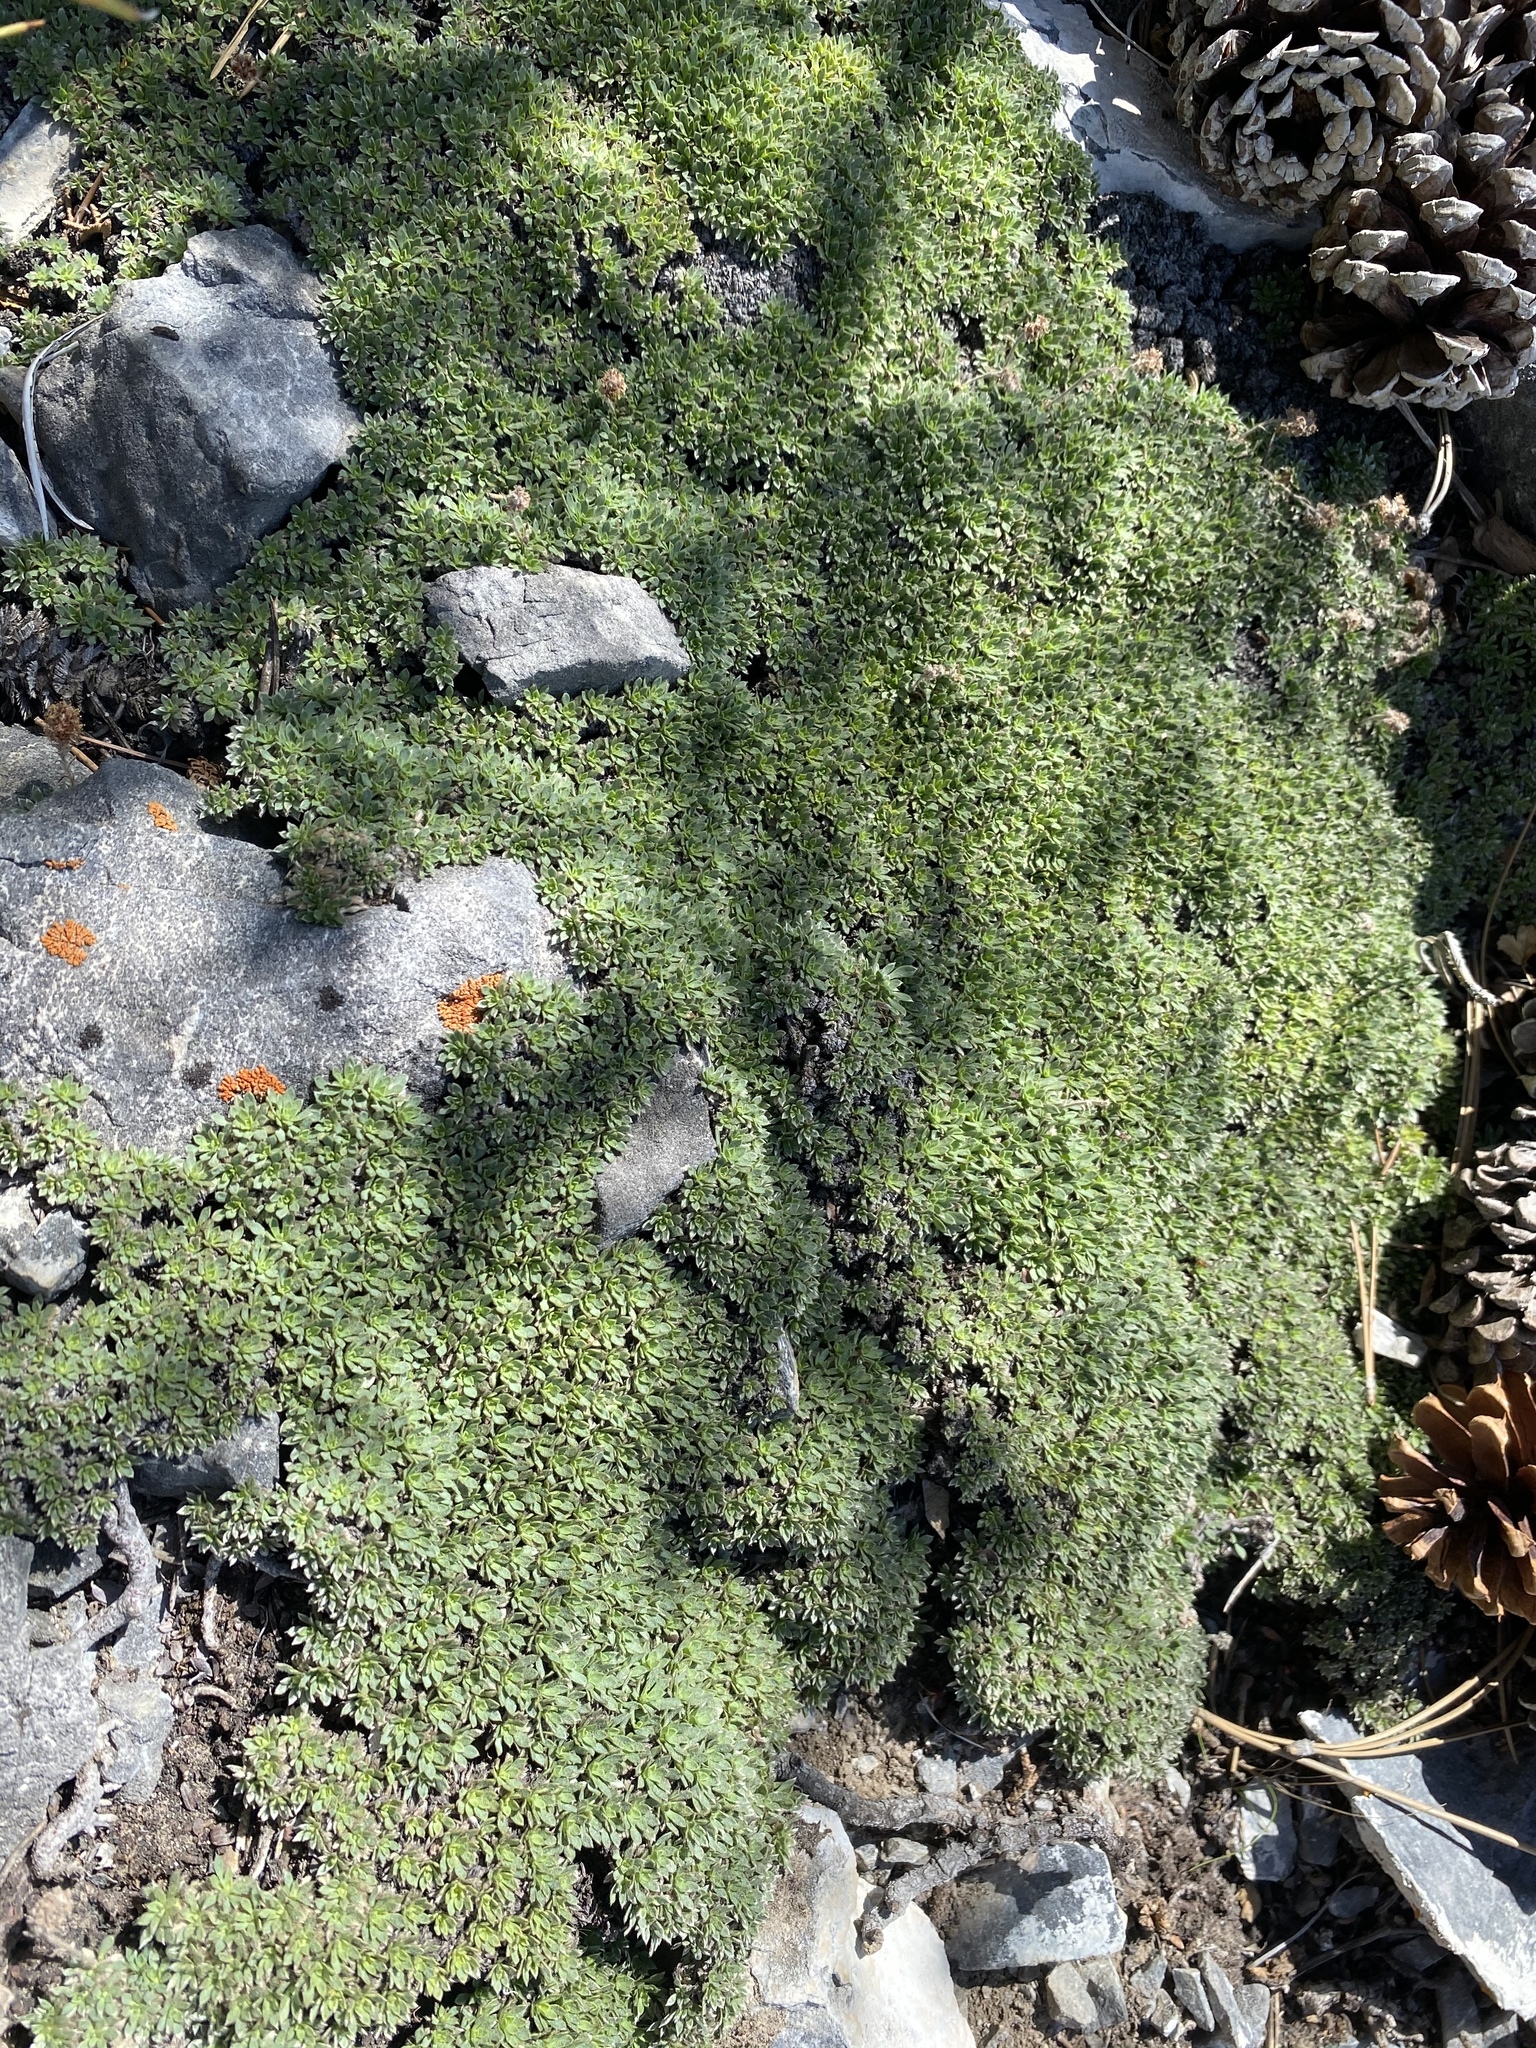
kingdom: Plantae
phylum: Tracheophyta
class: Magnoliopsida
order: Rosales
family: Rosaceae
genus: Petrophytum
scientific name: Petrophytum caespitosum
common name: Mat rockspirea
